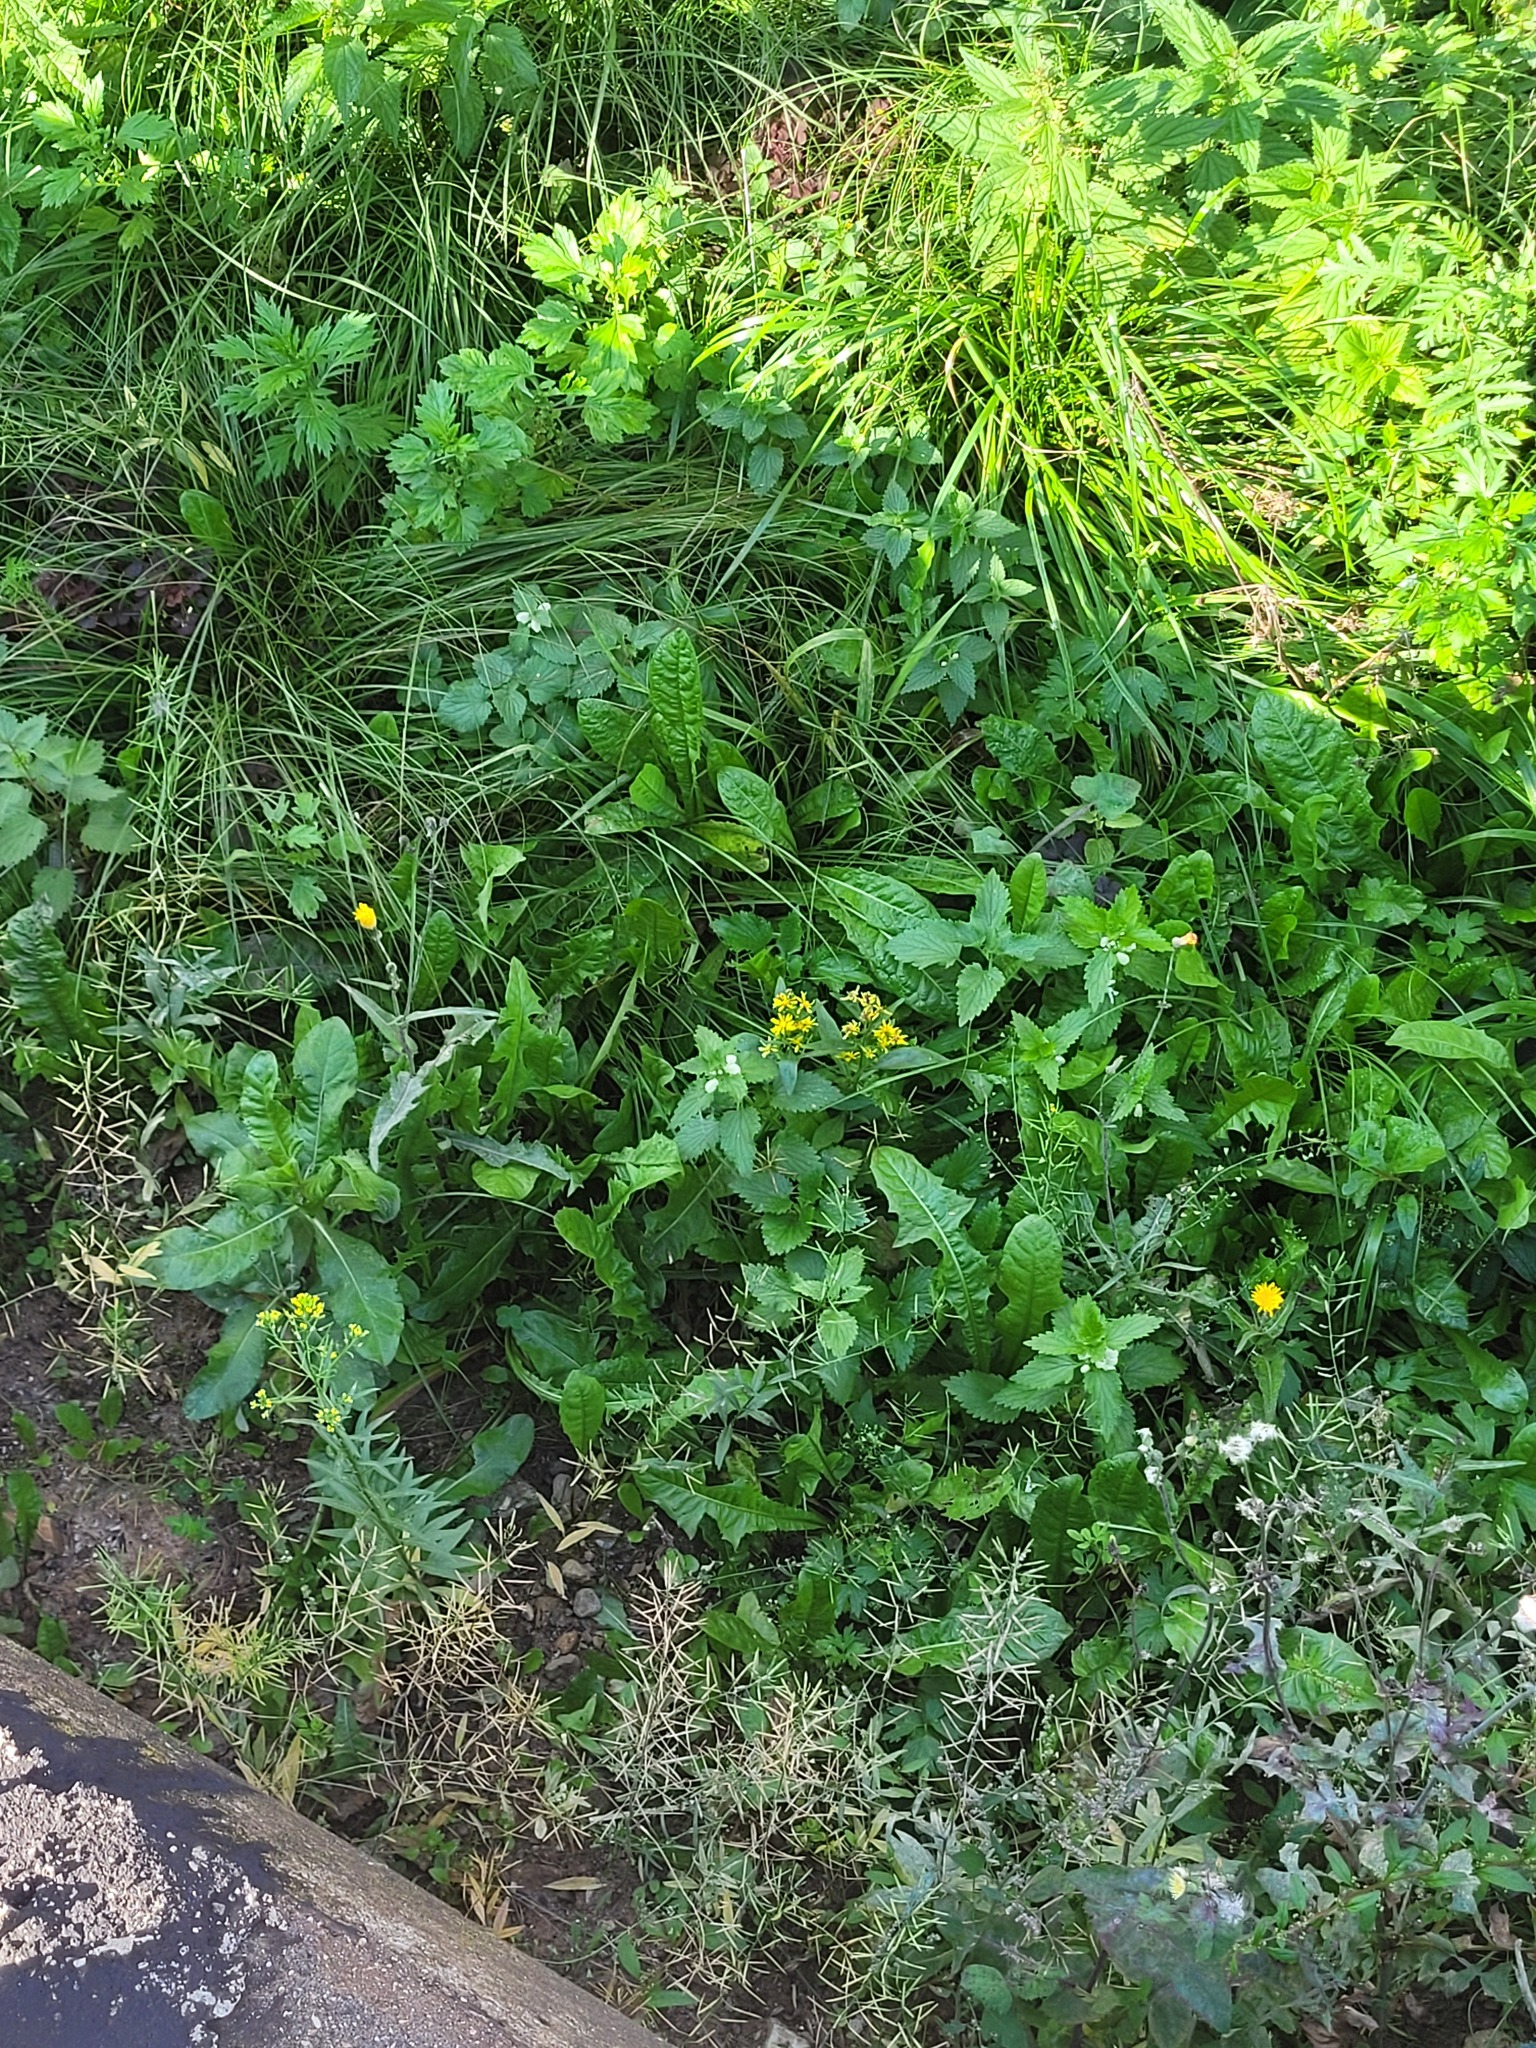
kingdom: Plantae
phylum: Tracheophyta
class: Magnoliopsida
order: Asterales
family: Asteraceae
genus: Solidago
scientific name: Solidago virgaurea
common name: Goldenrod
